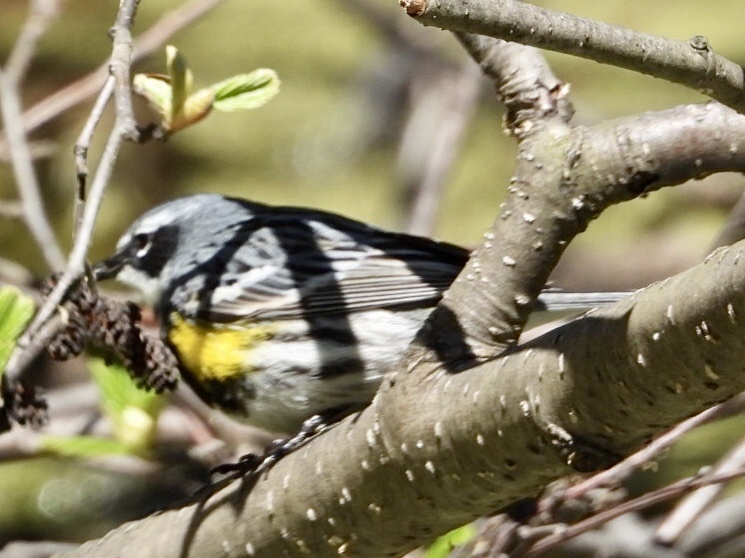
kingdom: Animalia
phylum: Chordata
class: Aves
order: Passeriformes
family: Parulidae
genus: Setophaga
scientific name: Setophaga coronata
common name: Myrtle warbler
